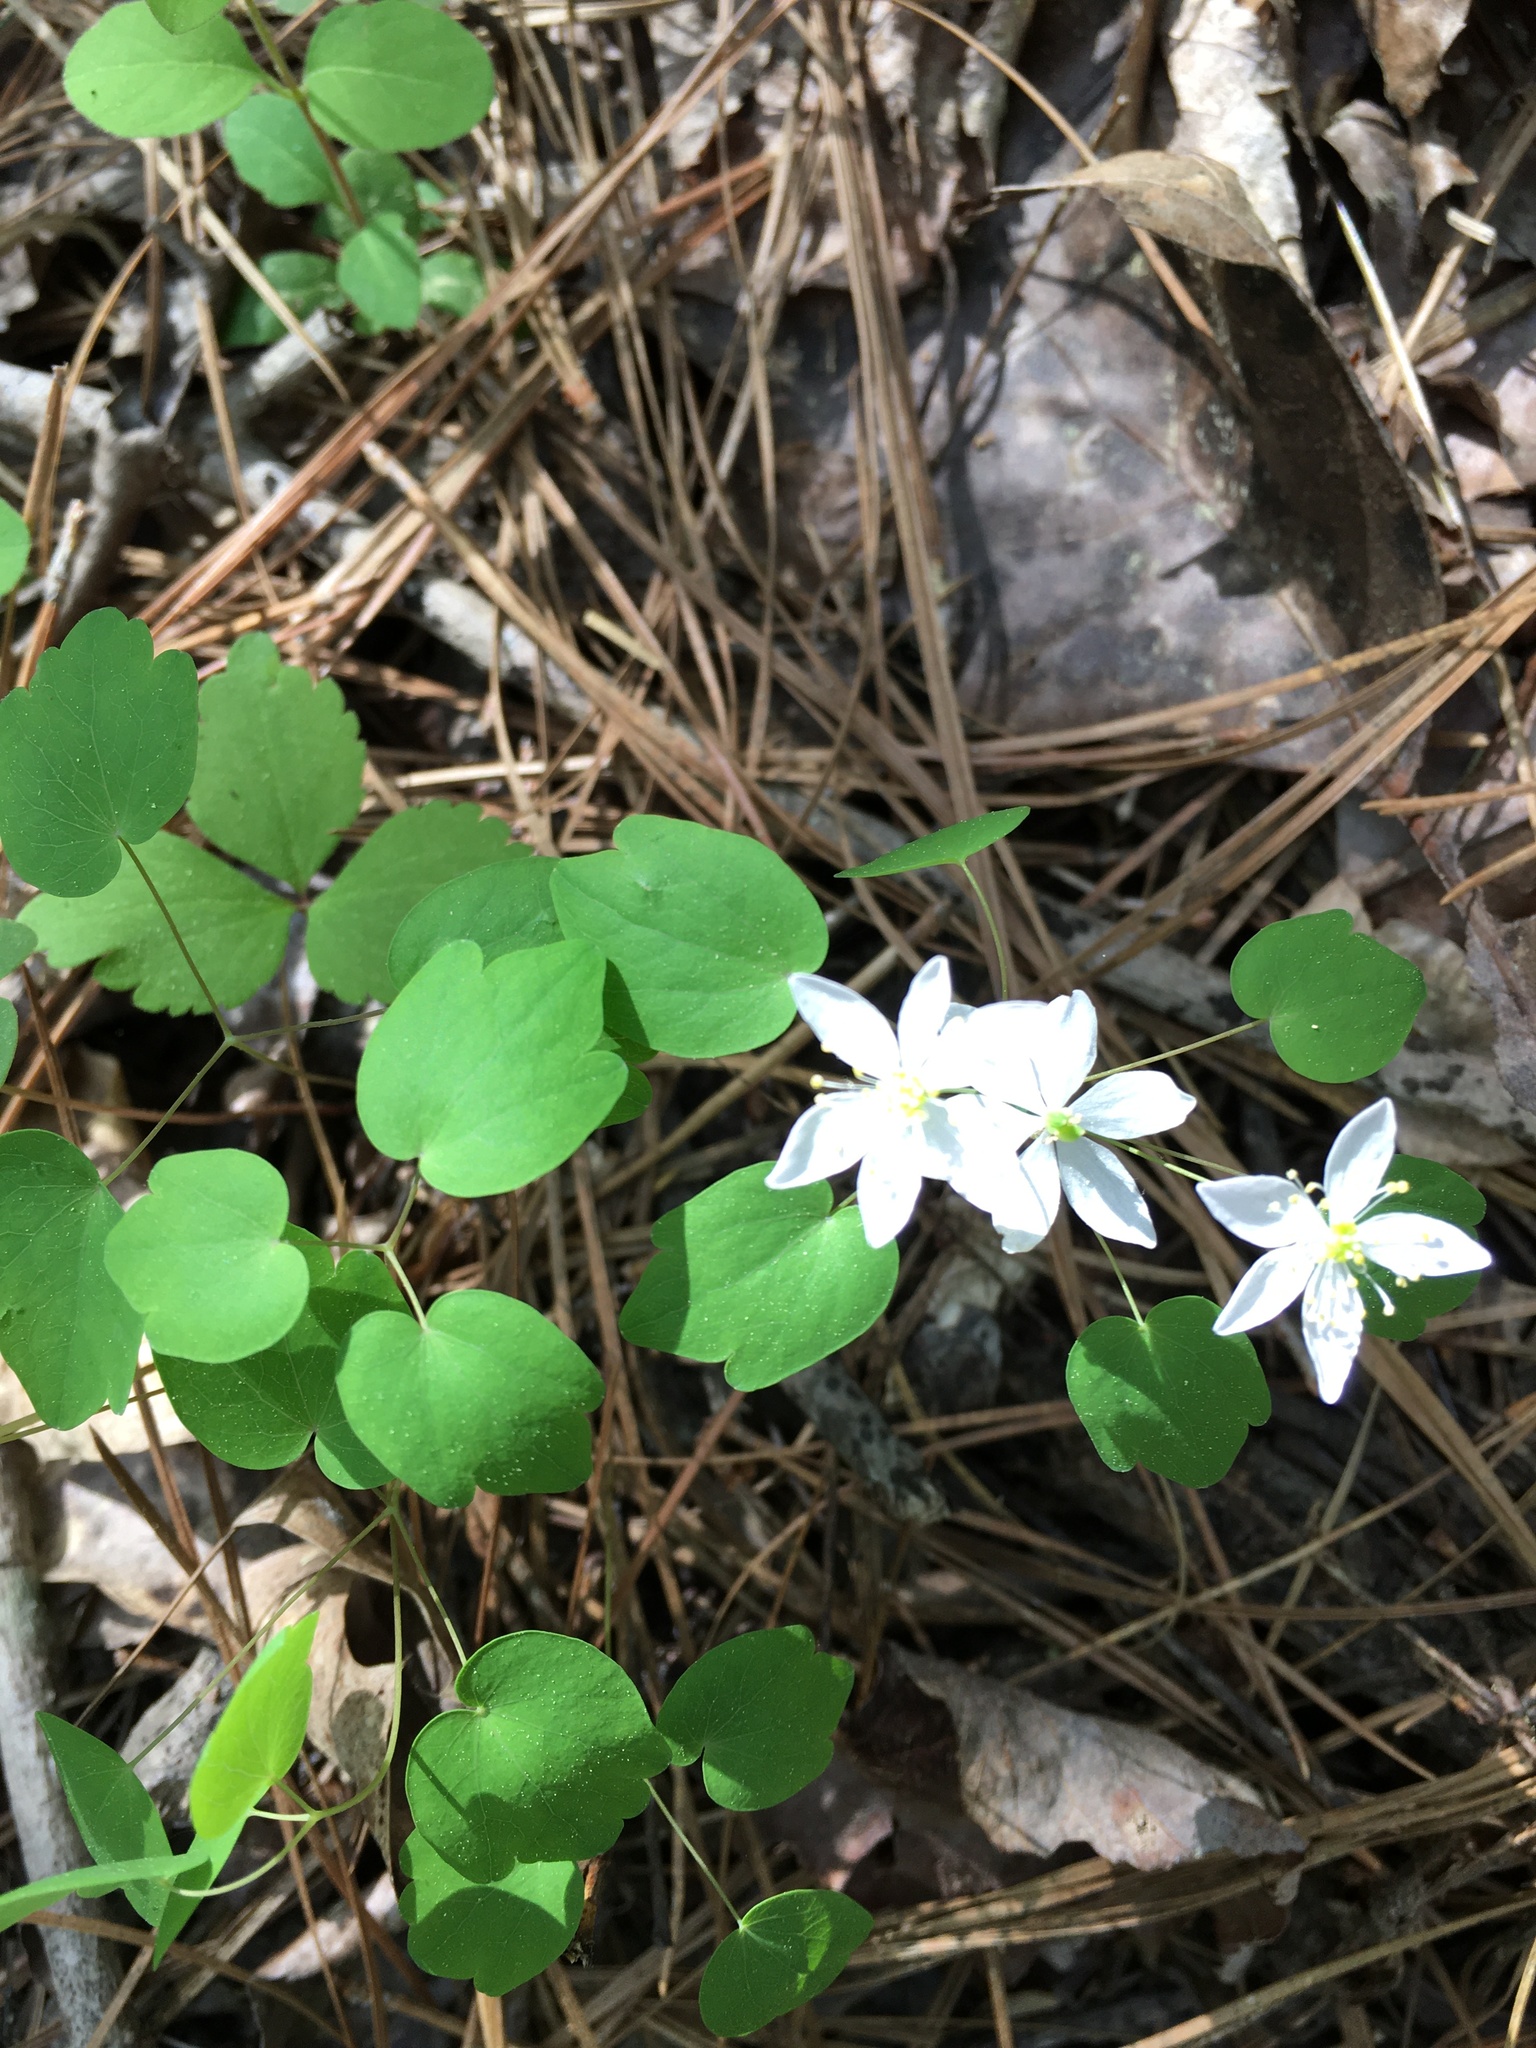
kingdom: Plantae
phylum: Tracheophyta
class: Magnoliopsida
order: Ranunculales
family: Ranunculaceae
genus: Thalictrum
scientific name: Thalictrum thalictroides
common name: Rue-anemone
